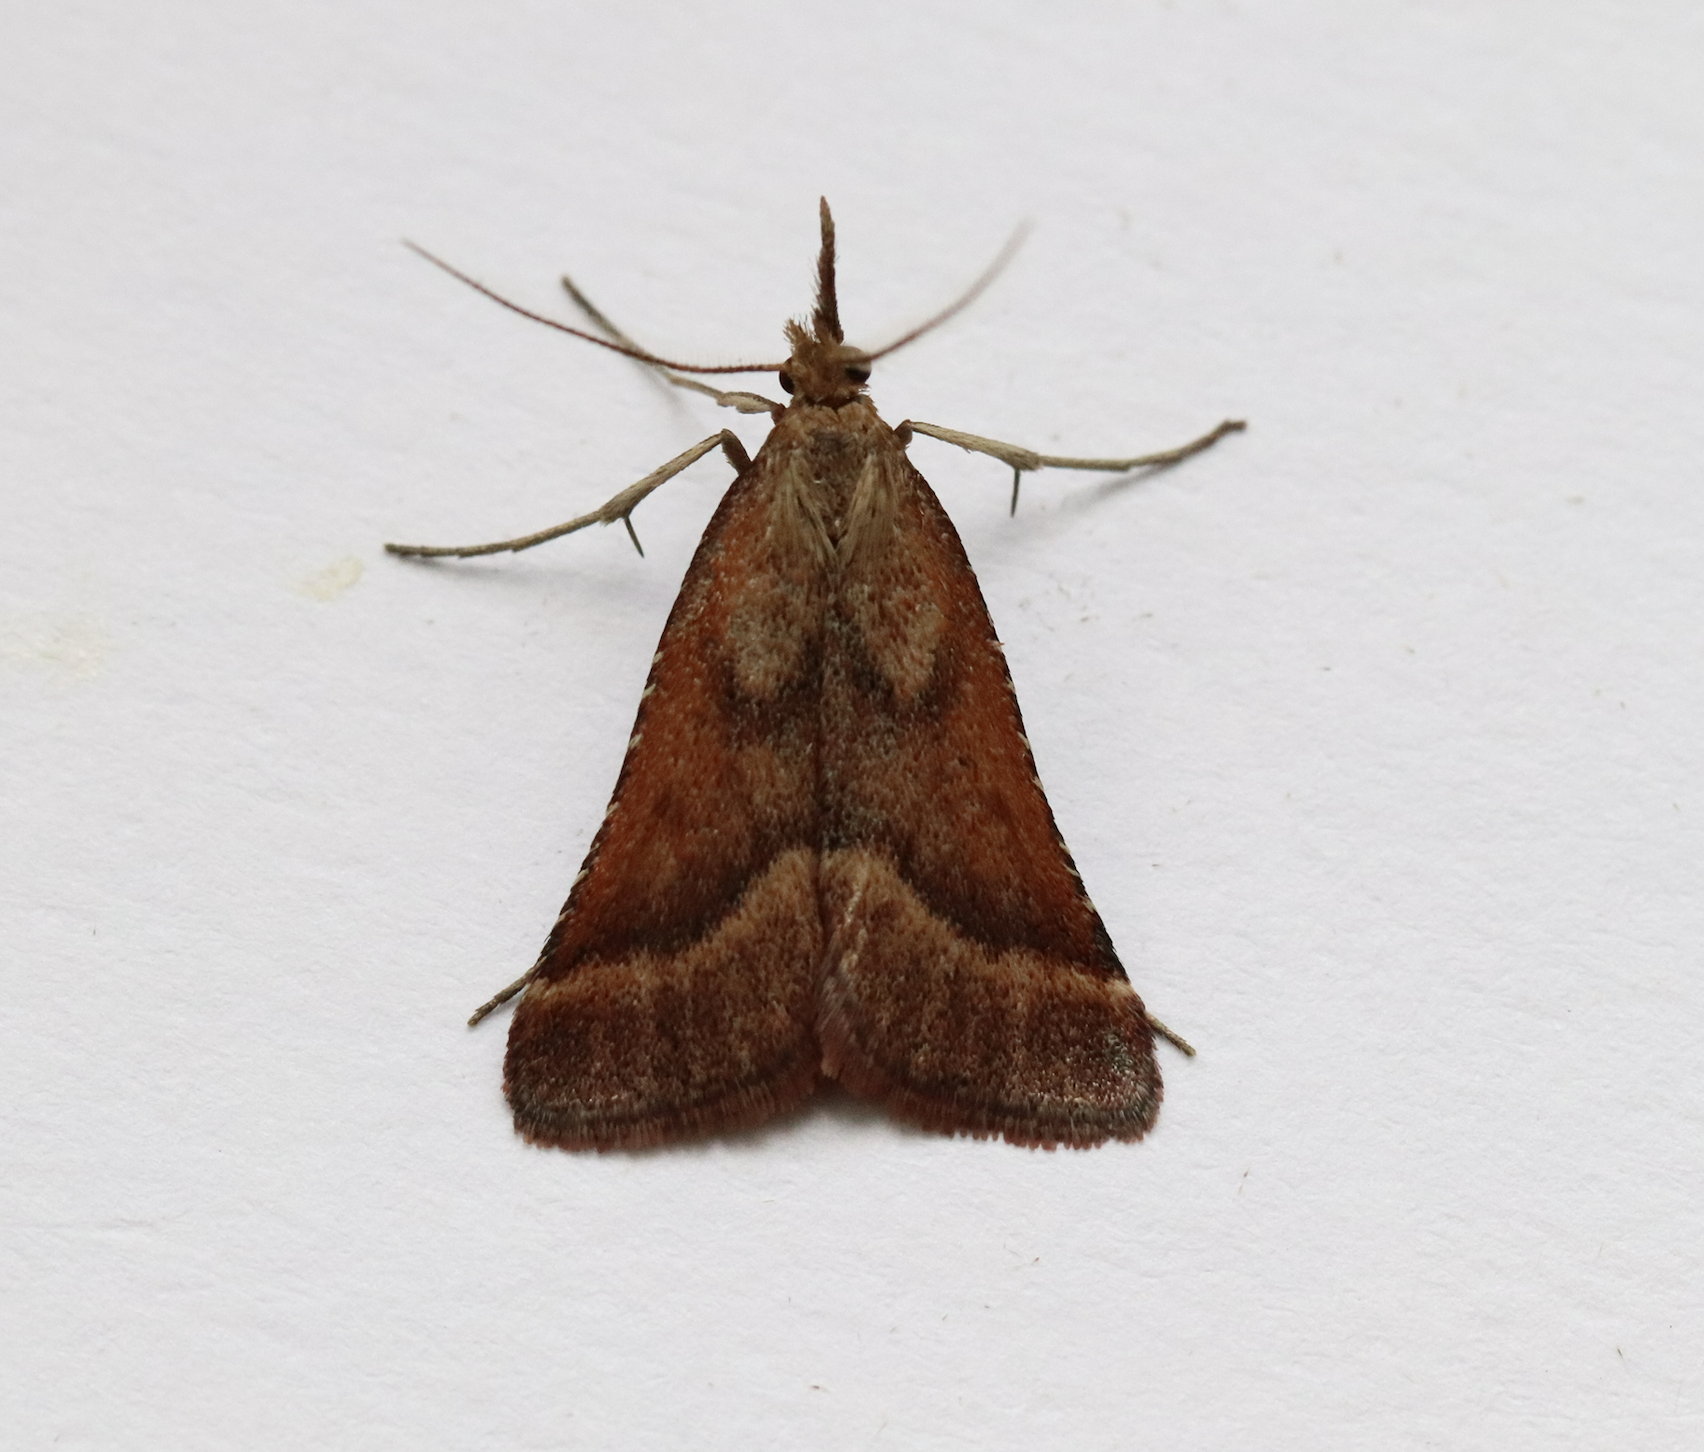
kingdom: Animalia
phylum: Arthropoda
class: Insecta
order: Lepidoptera
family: Pyralidae
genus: Synaphe
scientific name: Synaphe punctalis
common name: Long-legged tabby
